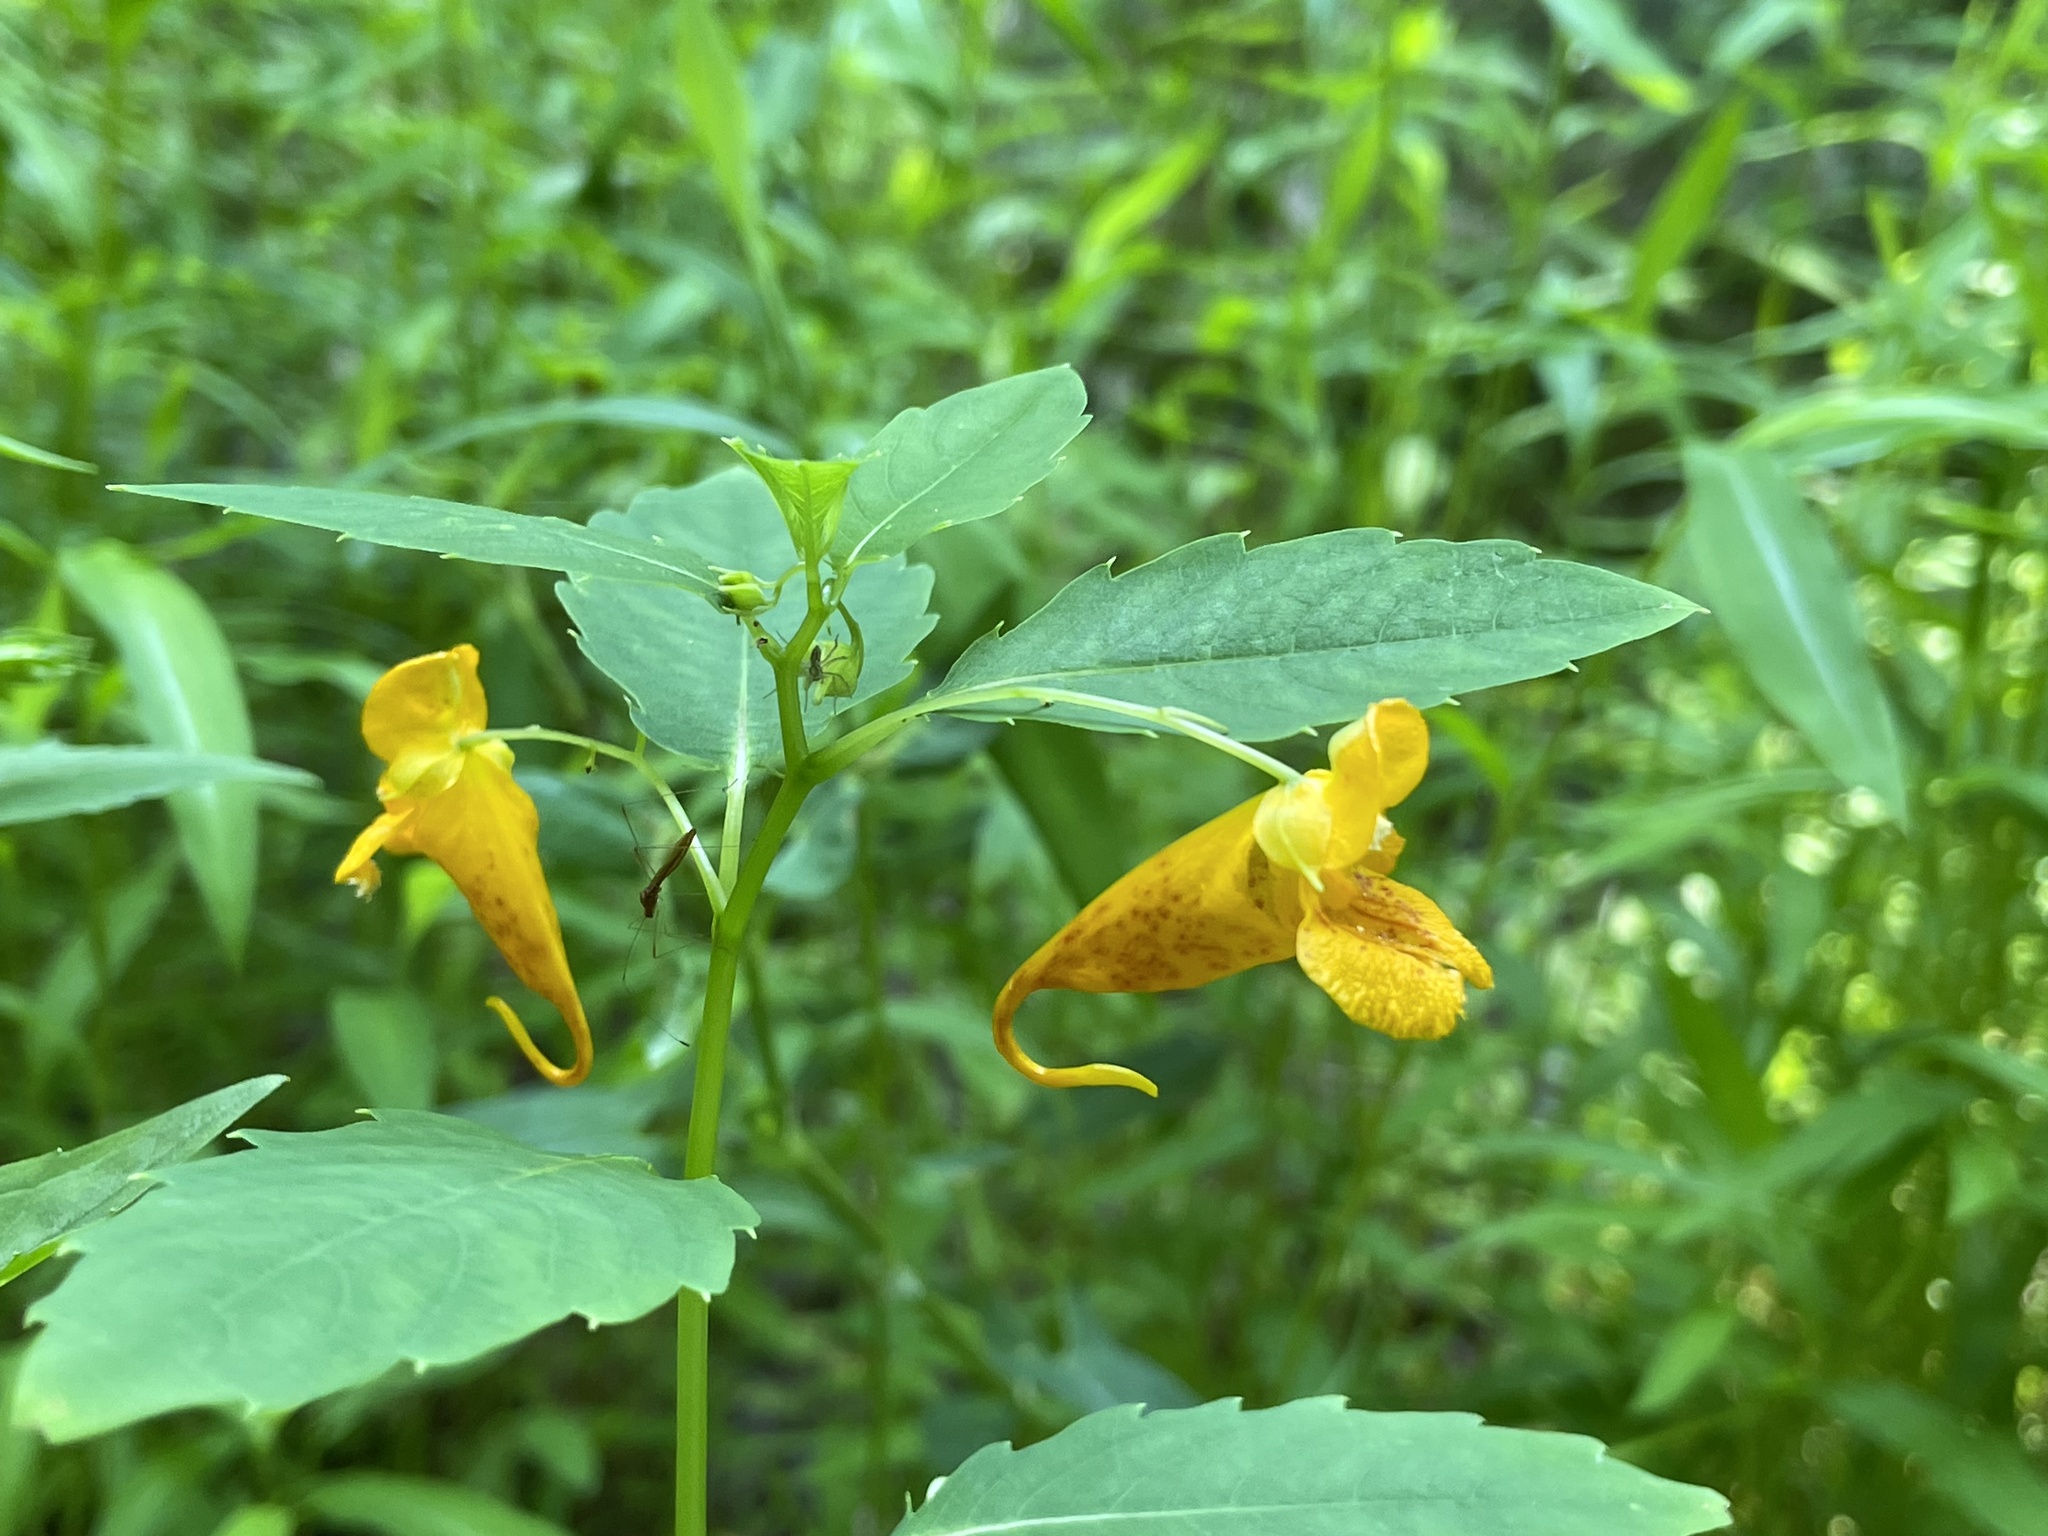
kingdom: Plantae
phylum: Tracheophyta
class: Magnoliopsida
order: Ericales
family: Balsaminaceae
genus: Impatiens
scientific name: Impatiens capensis
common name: Orange balsam
